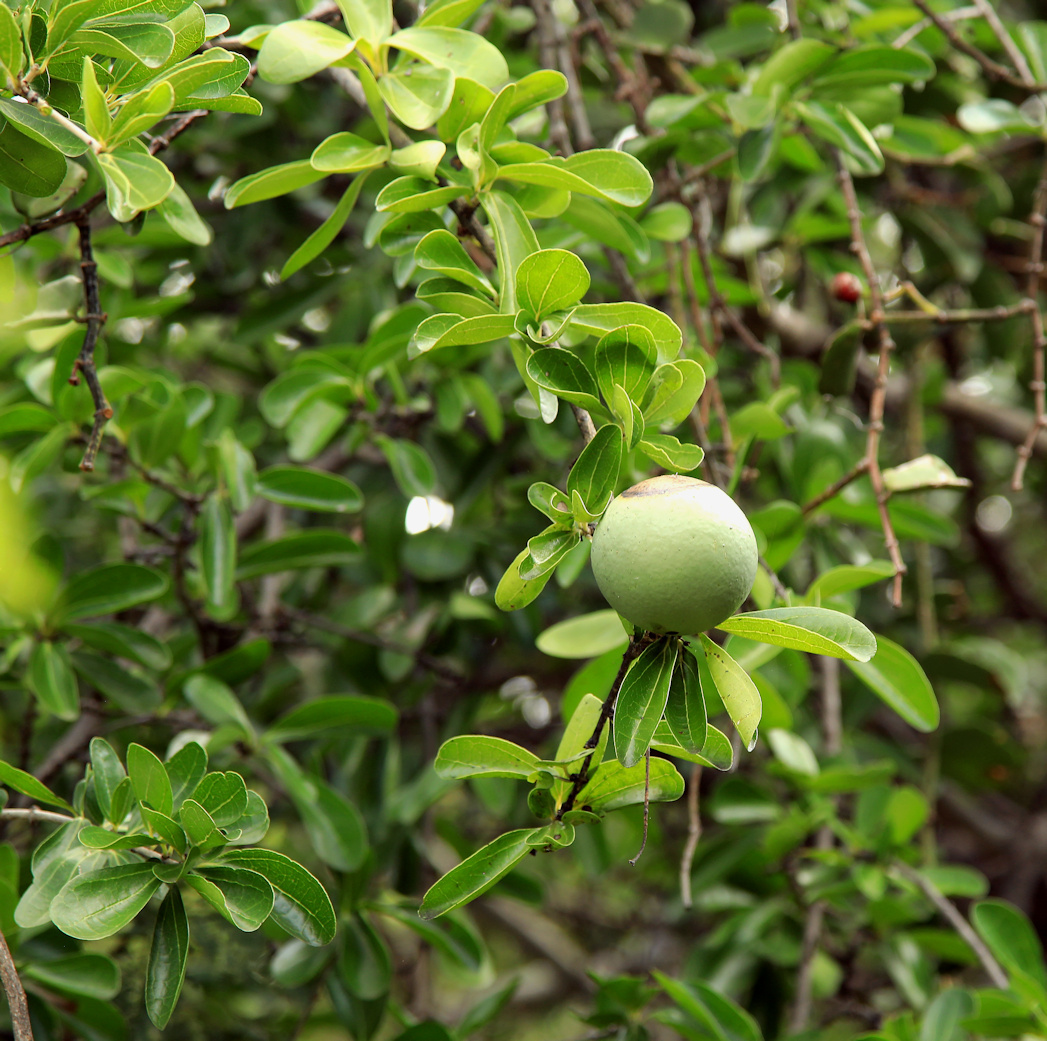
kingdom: Plantae
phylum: Tracheophyta
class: Magnoliopsida
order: Gentianales
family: Loganiaceae
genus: Strychnos
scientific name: Strychnos madagascariensis
